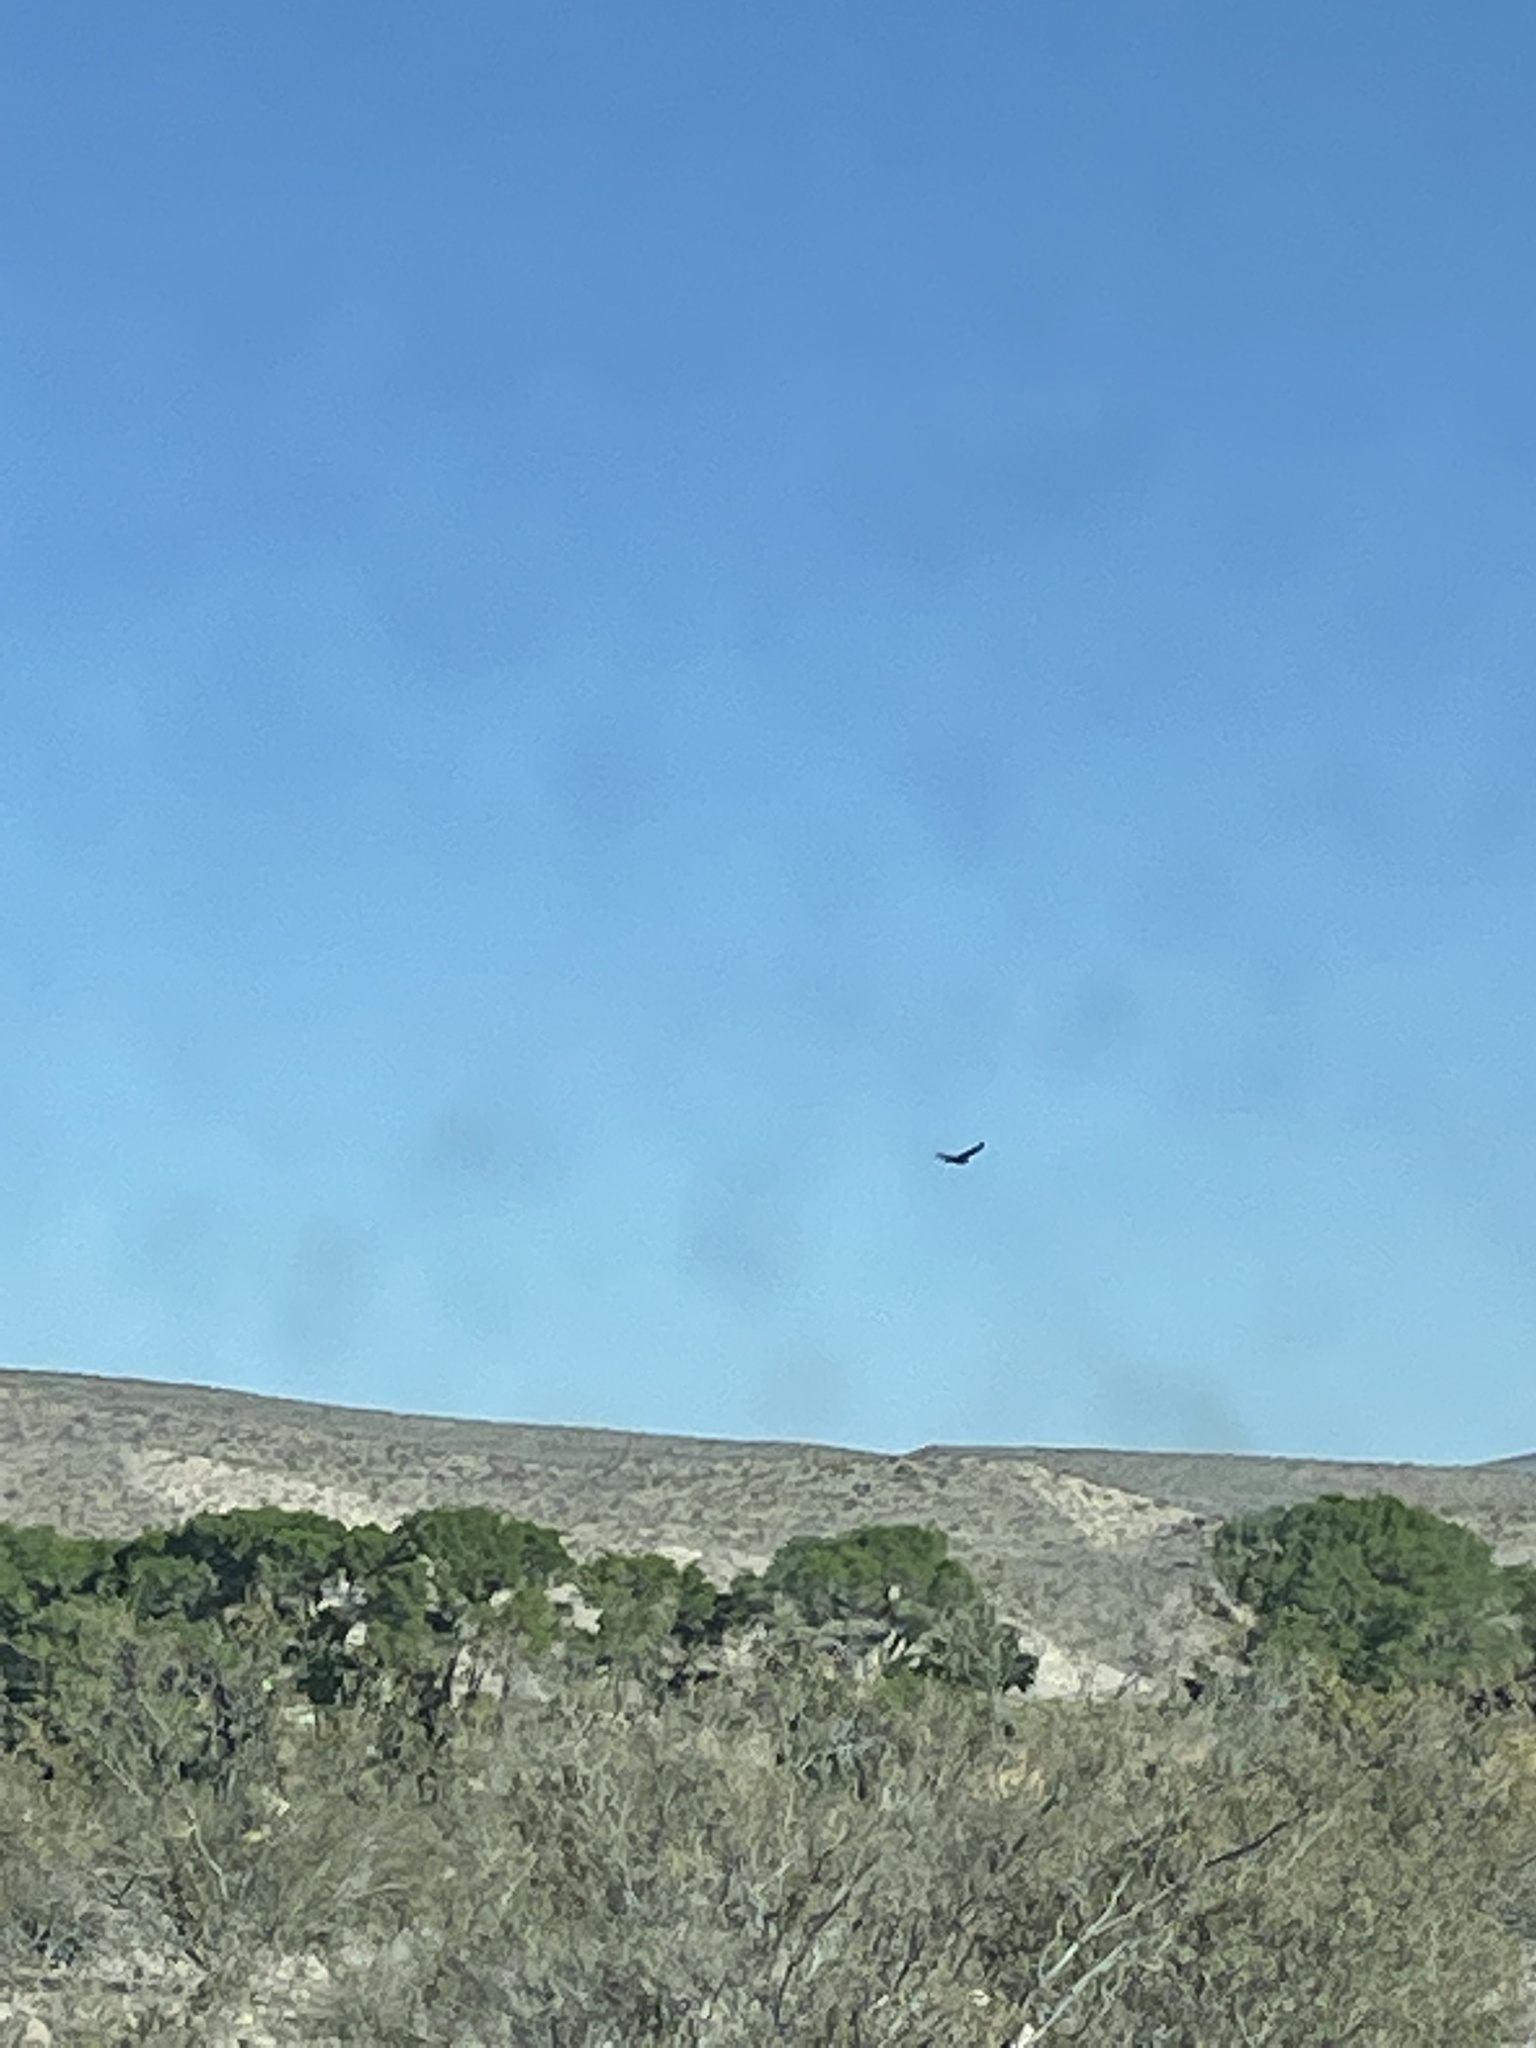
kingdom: Animalia
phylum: Chordata
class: Aves
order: Accipitriformes
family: Cathartidae
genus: Cathartes
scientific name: Cathartes aura
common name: Turkey vulture
